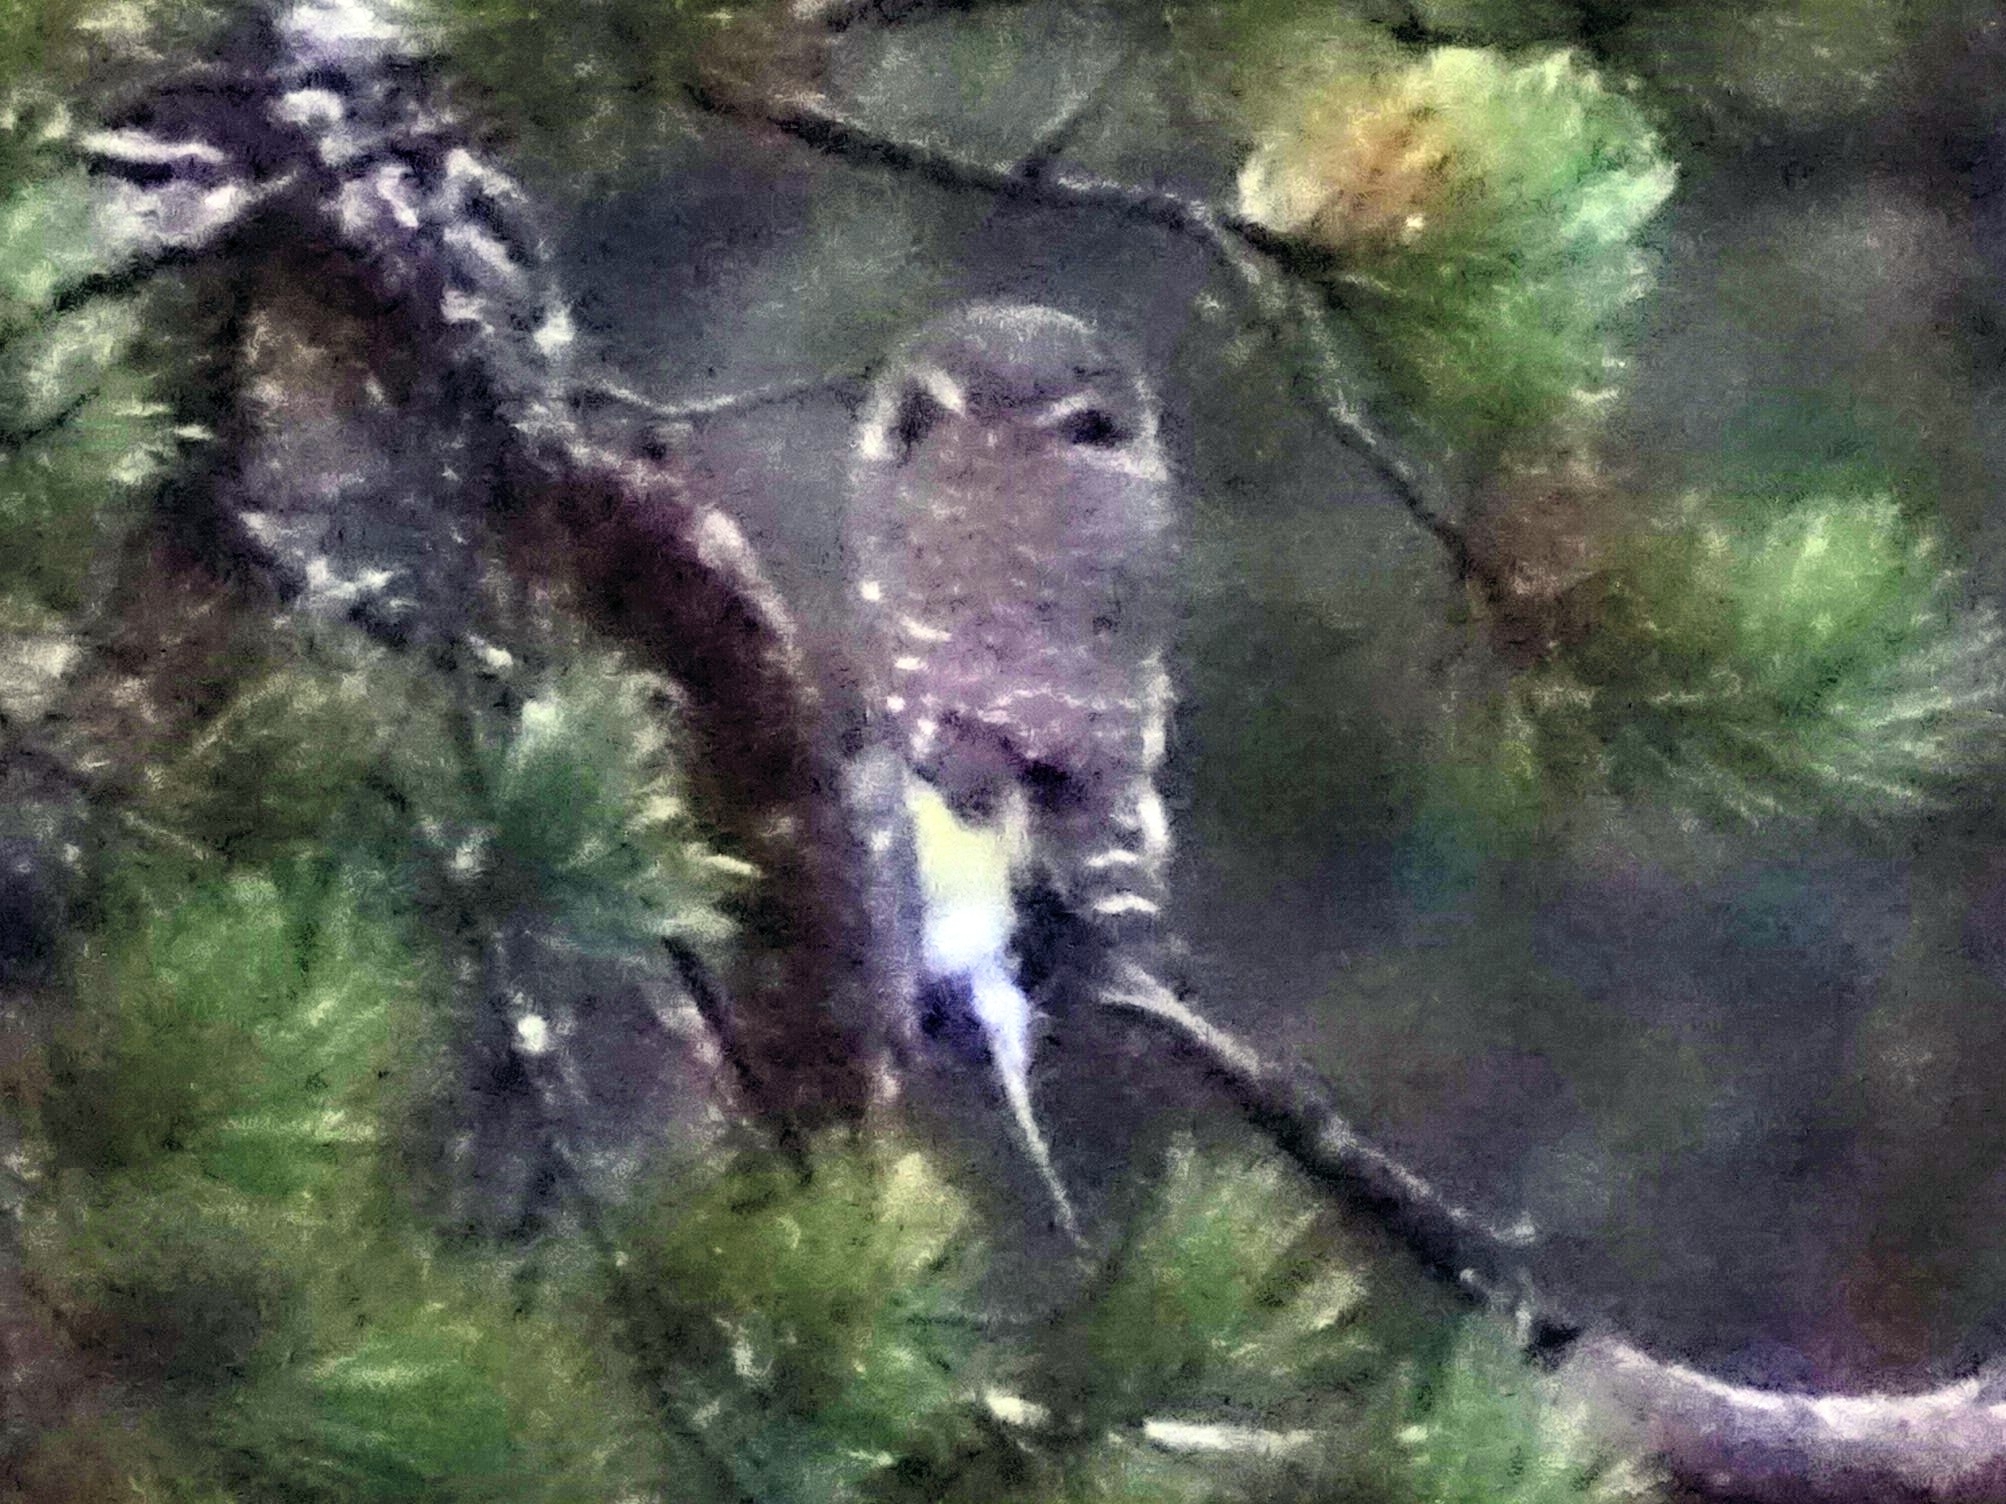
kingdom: Animalia
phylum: Chordata
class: Aves
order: Strigiformes
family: Strigidae
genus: Glaucidium
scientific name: Glaucidium passerinum
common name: Eurasian pygmy owl
